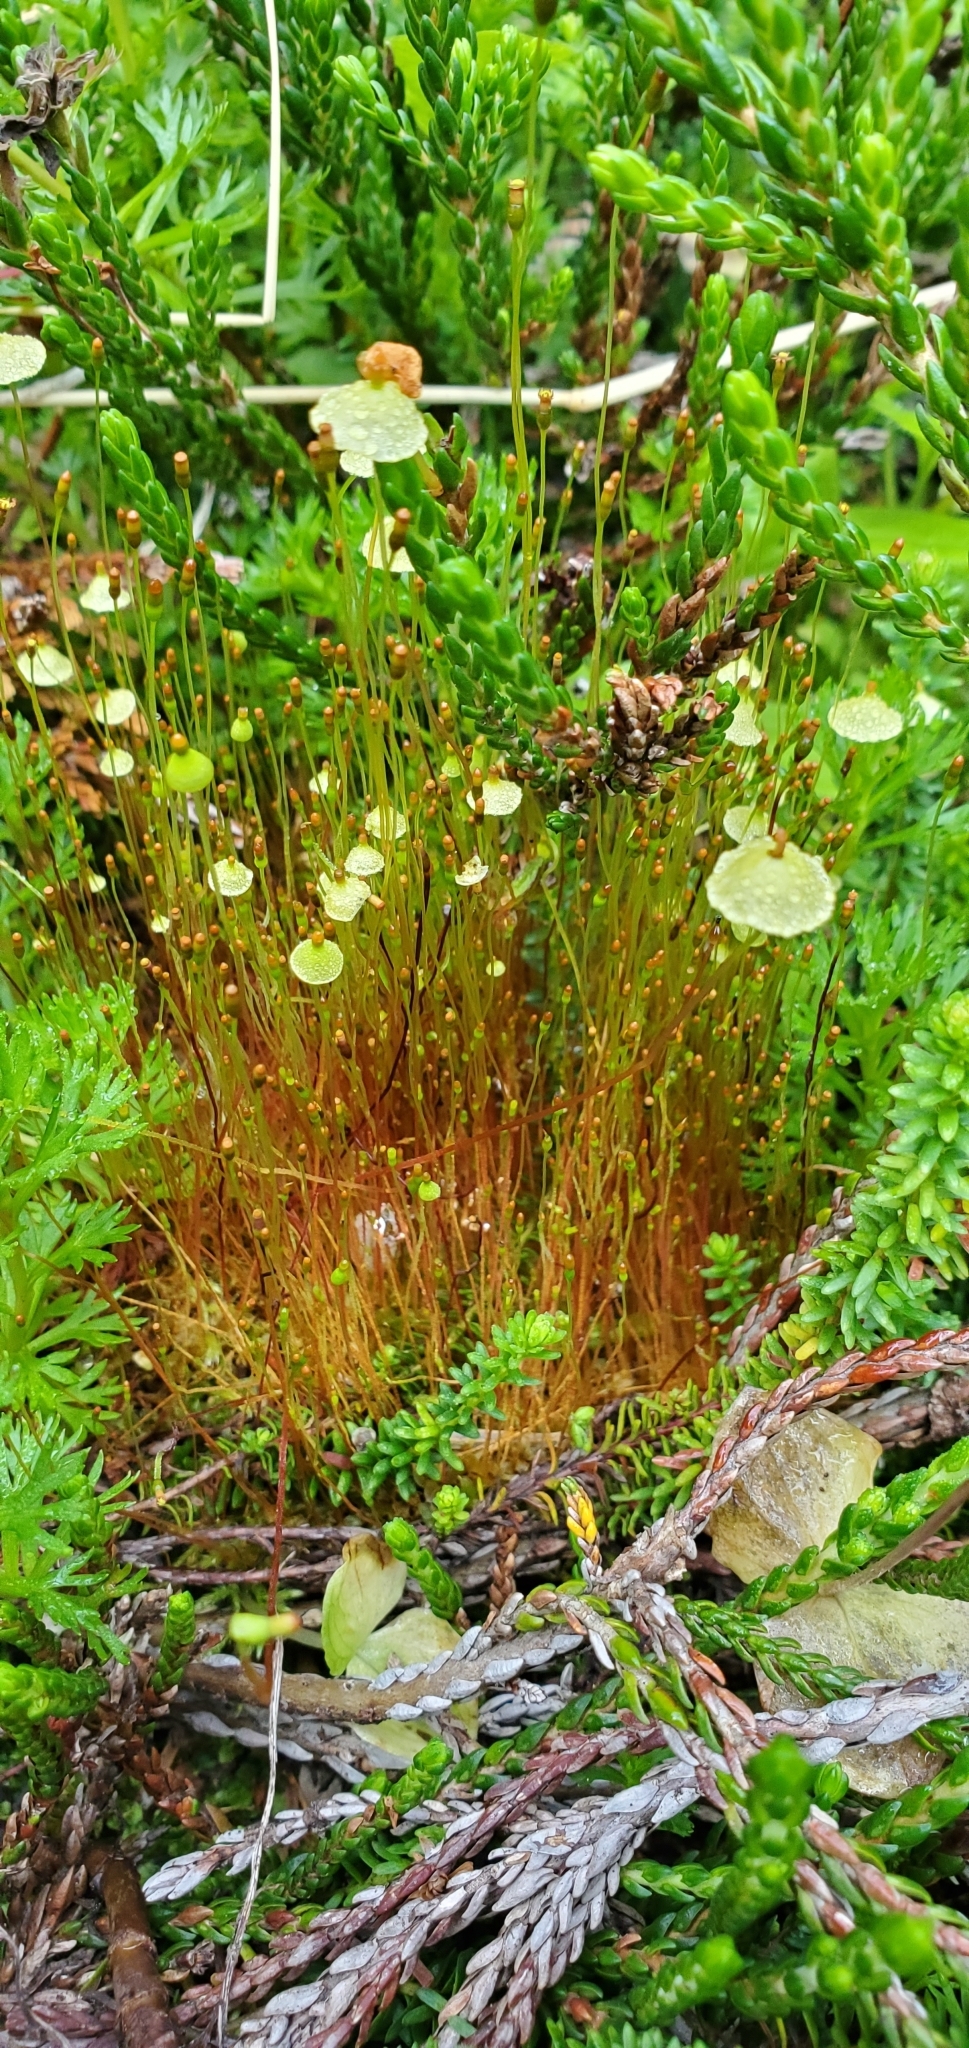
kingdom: Plantae
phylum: Bryophyta
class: Bryopsida
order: Splachnales
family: Splachnaceae
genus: Splachnum
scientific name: Splachnum luteum
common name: Yellow dung moss
